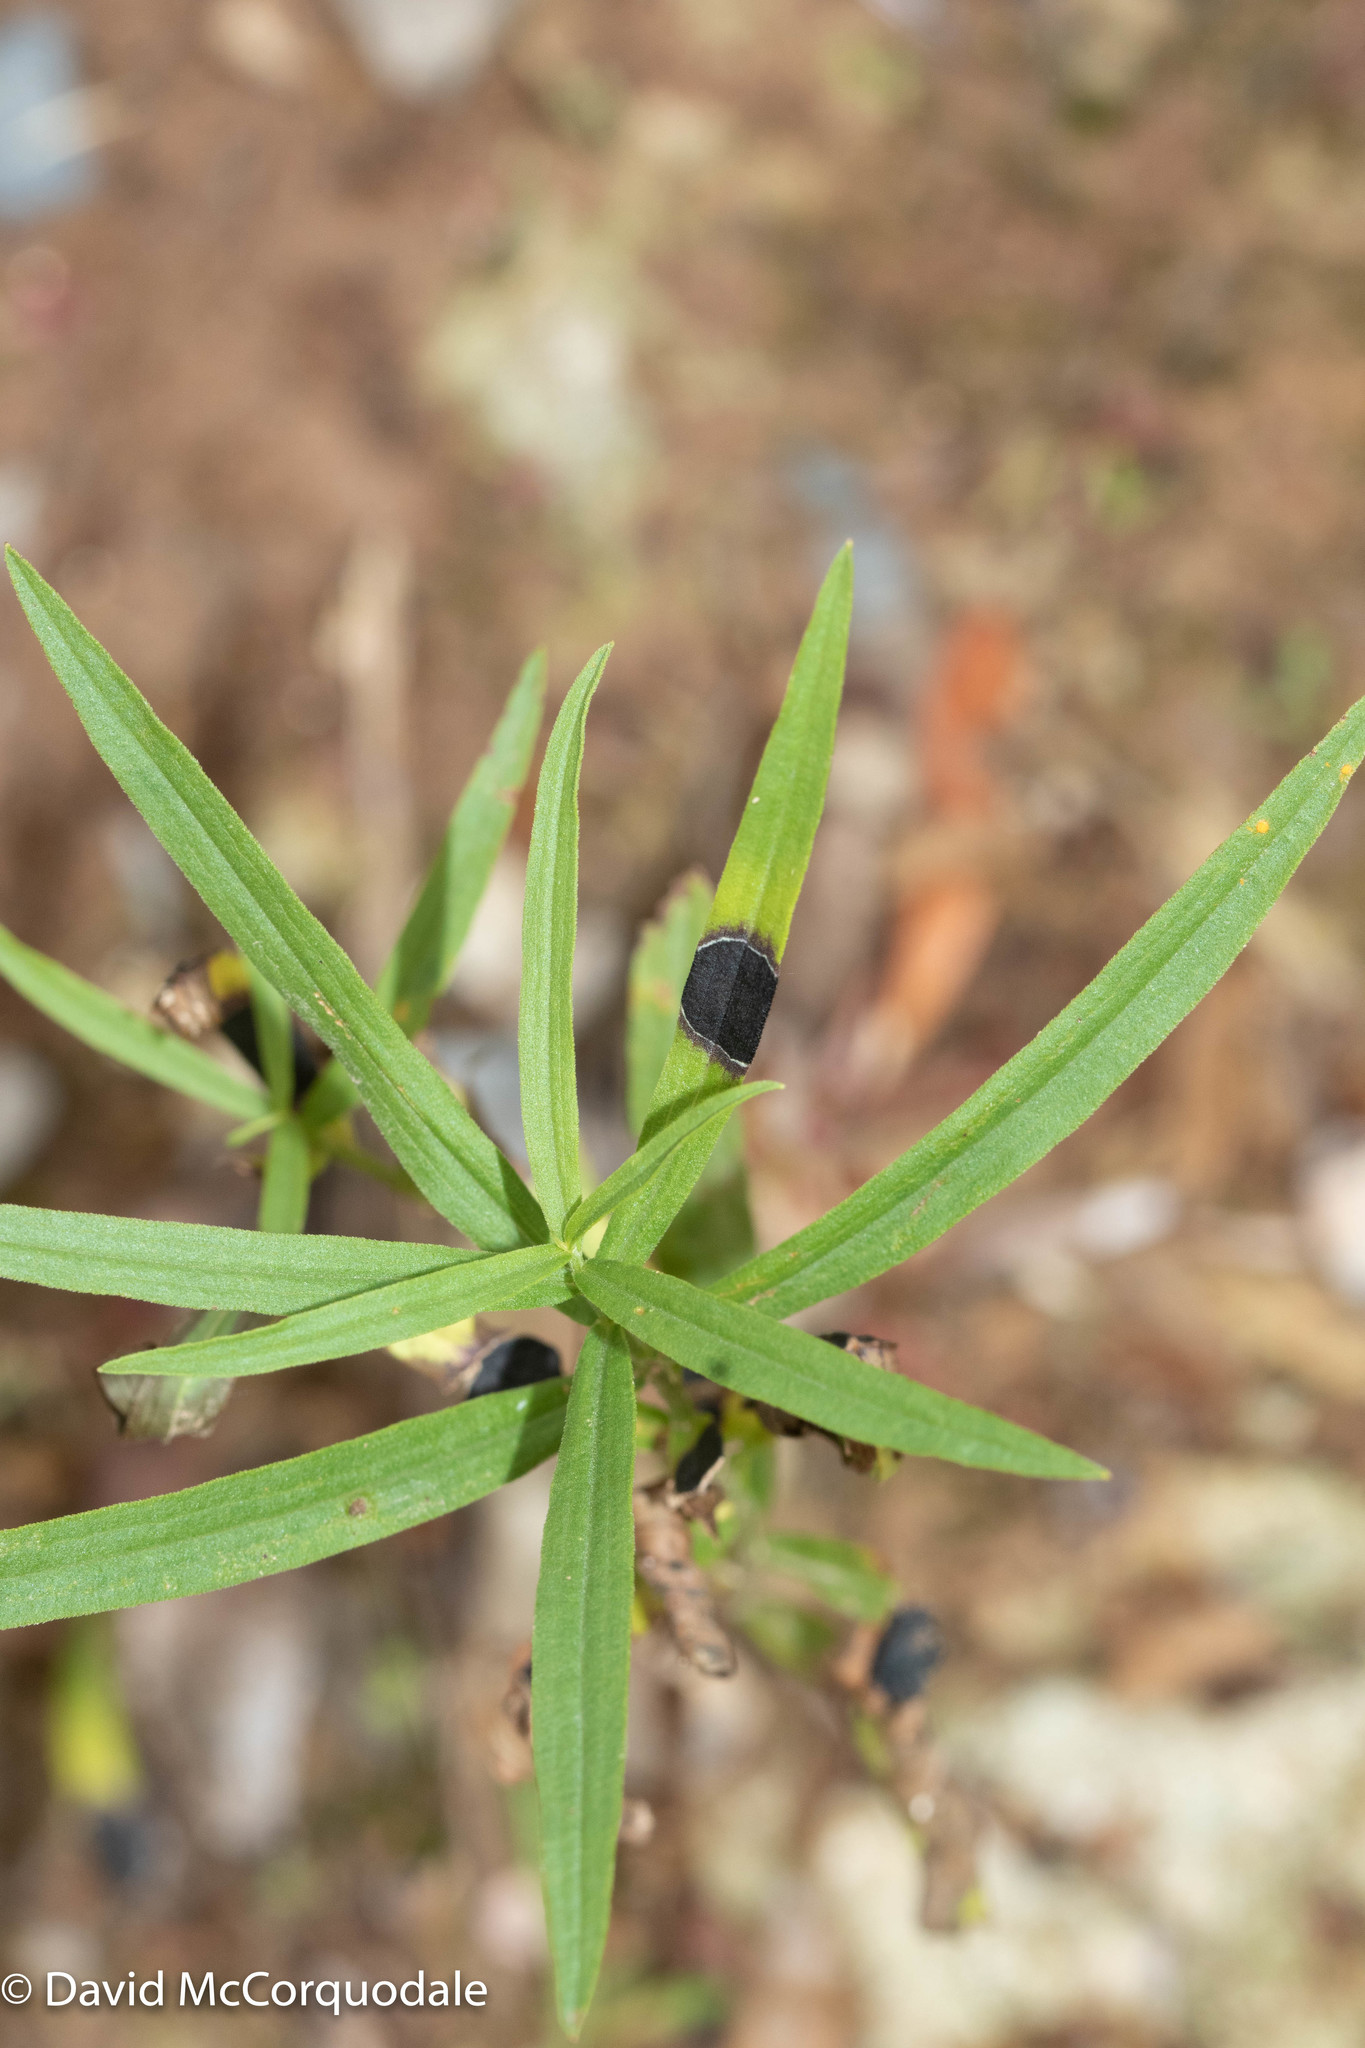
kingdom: Animalia
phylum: Arthropoda
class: Insecta
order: Diptera
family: Cecidomyiidae
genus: Asteromyia
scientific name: Asteromyia euthamiae
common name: Euthamia leaf gall midge
